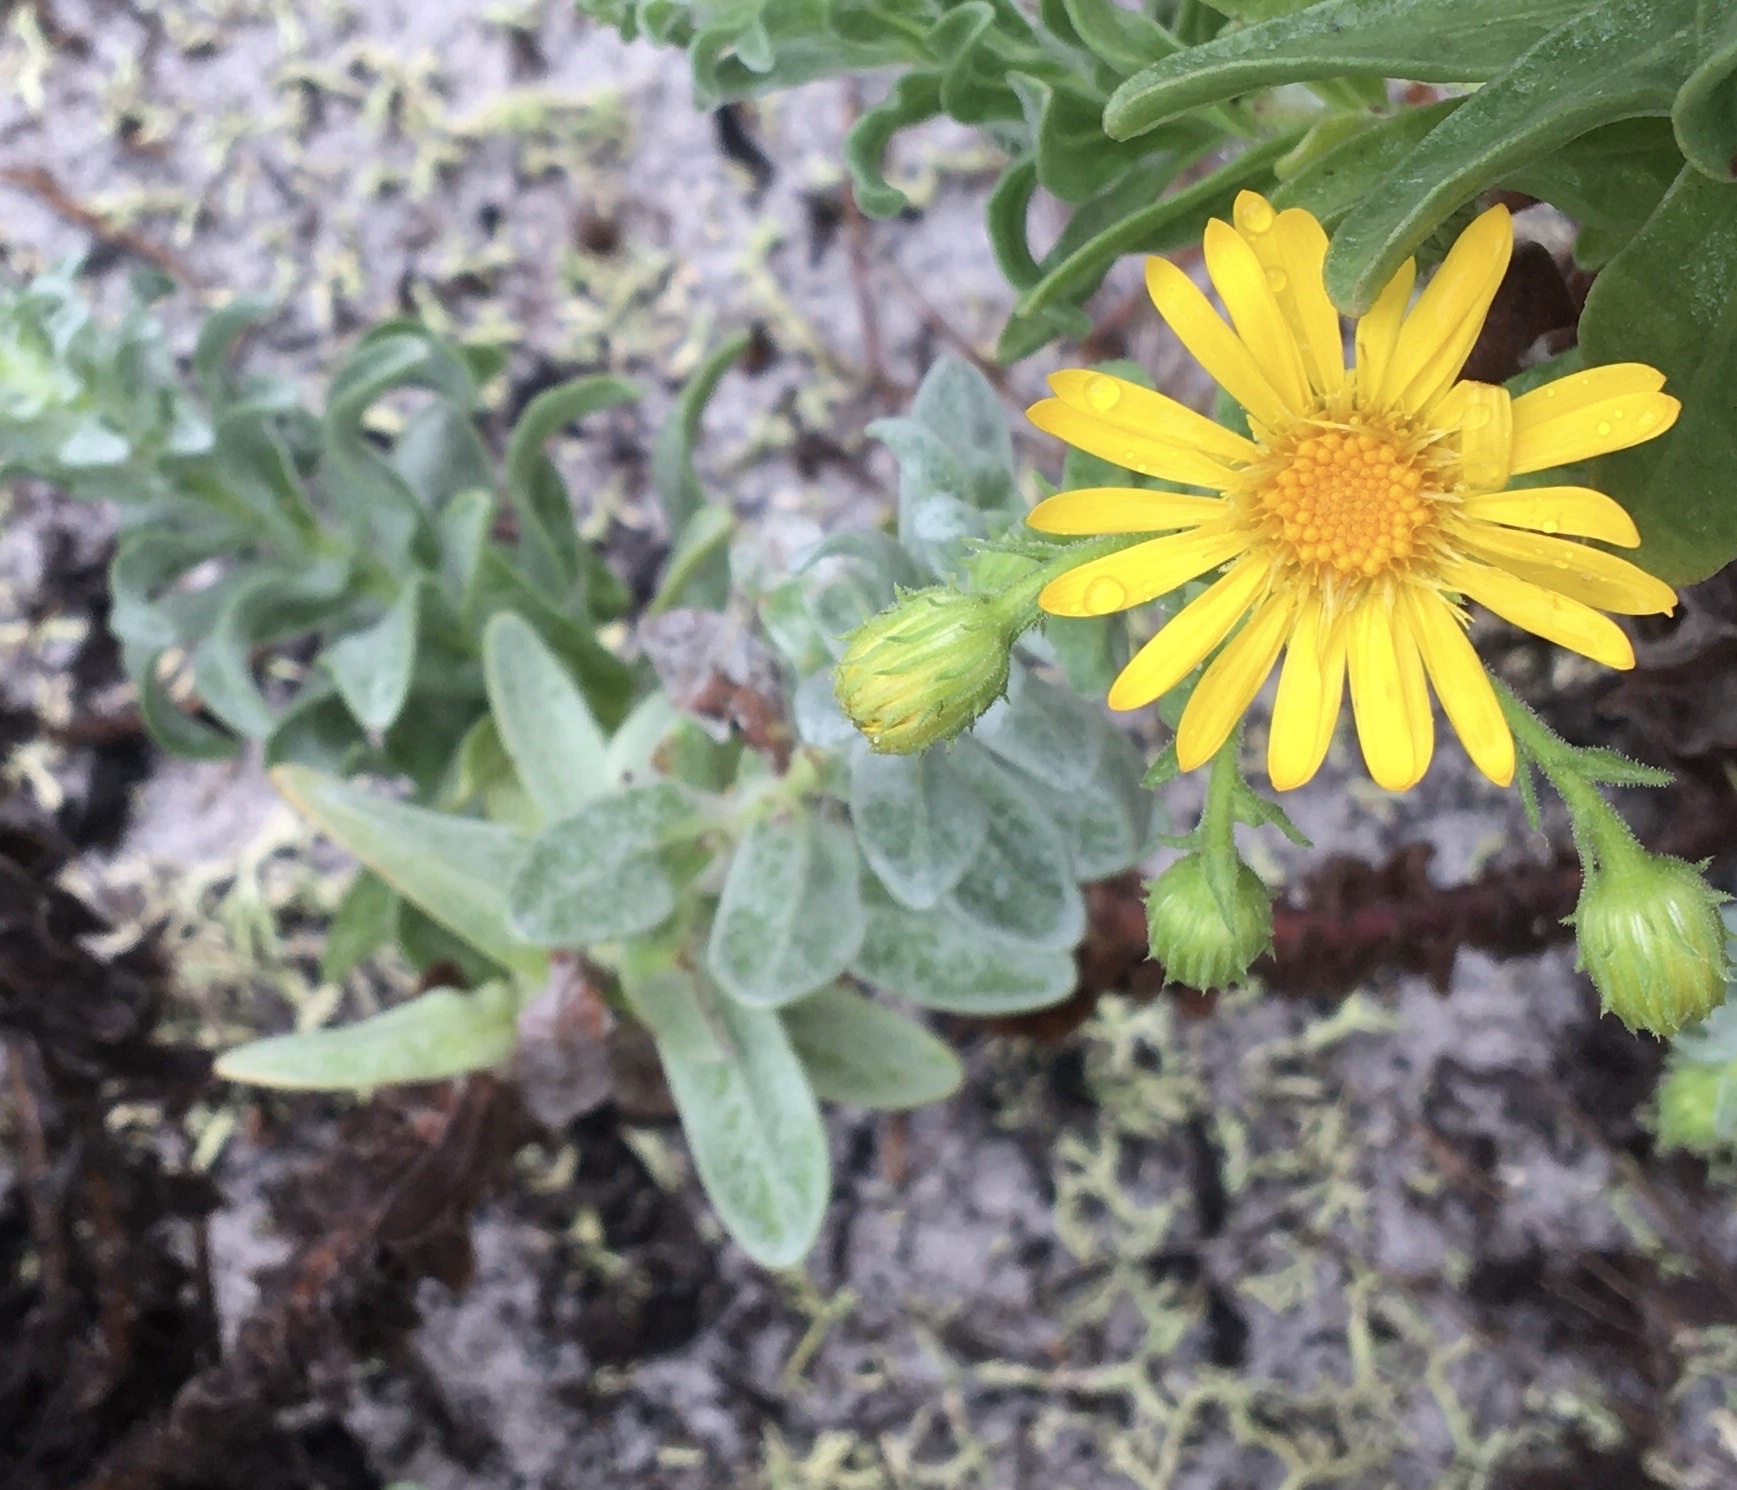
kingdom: Plantae
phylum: Tracheophyta
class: Magnoliopsida
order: Asterales
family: Asteraceae
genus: Chrysopsis
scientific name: Chrysopsis godfreyi
